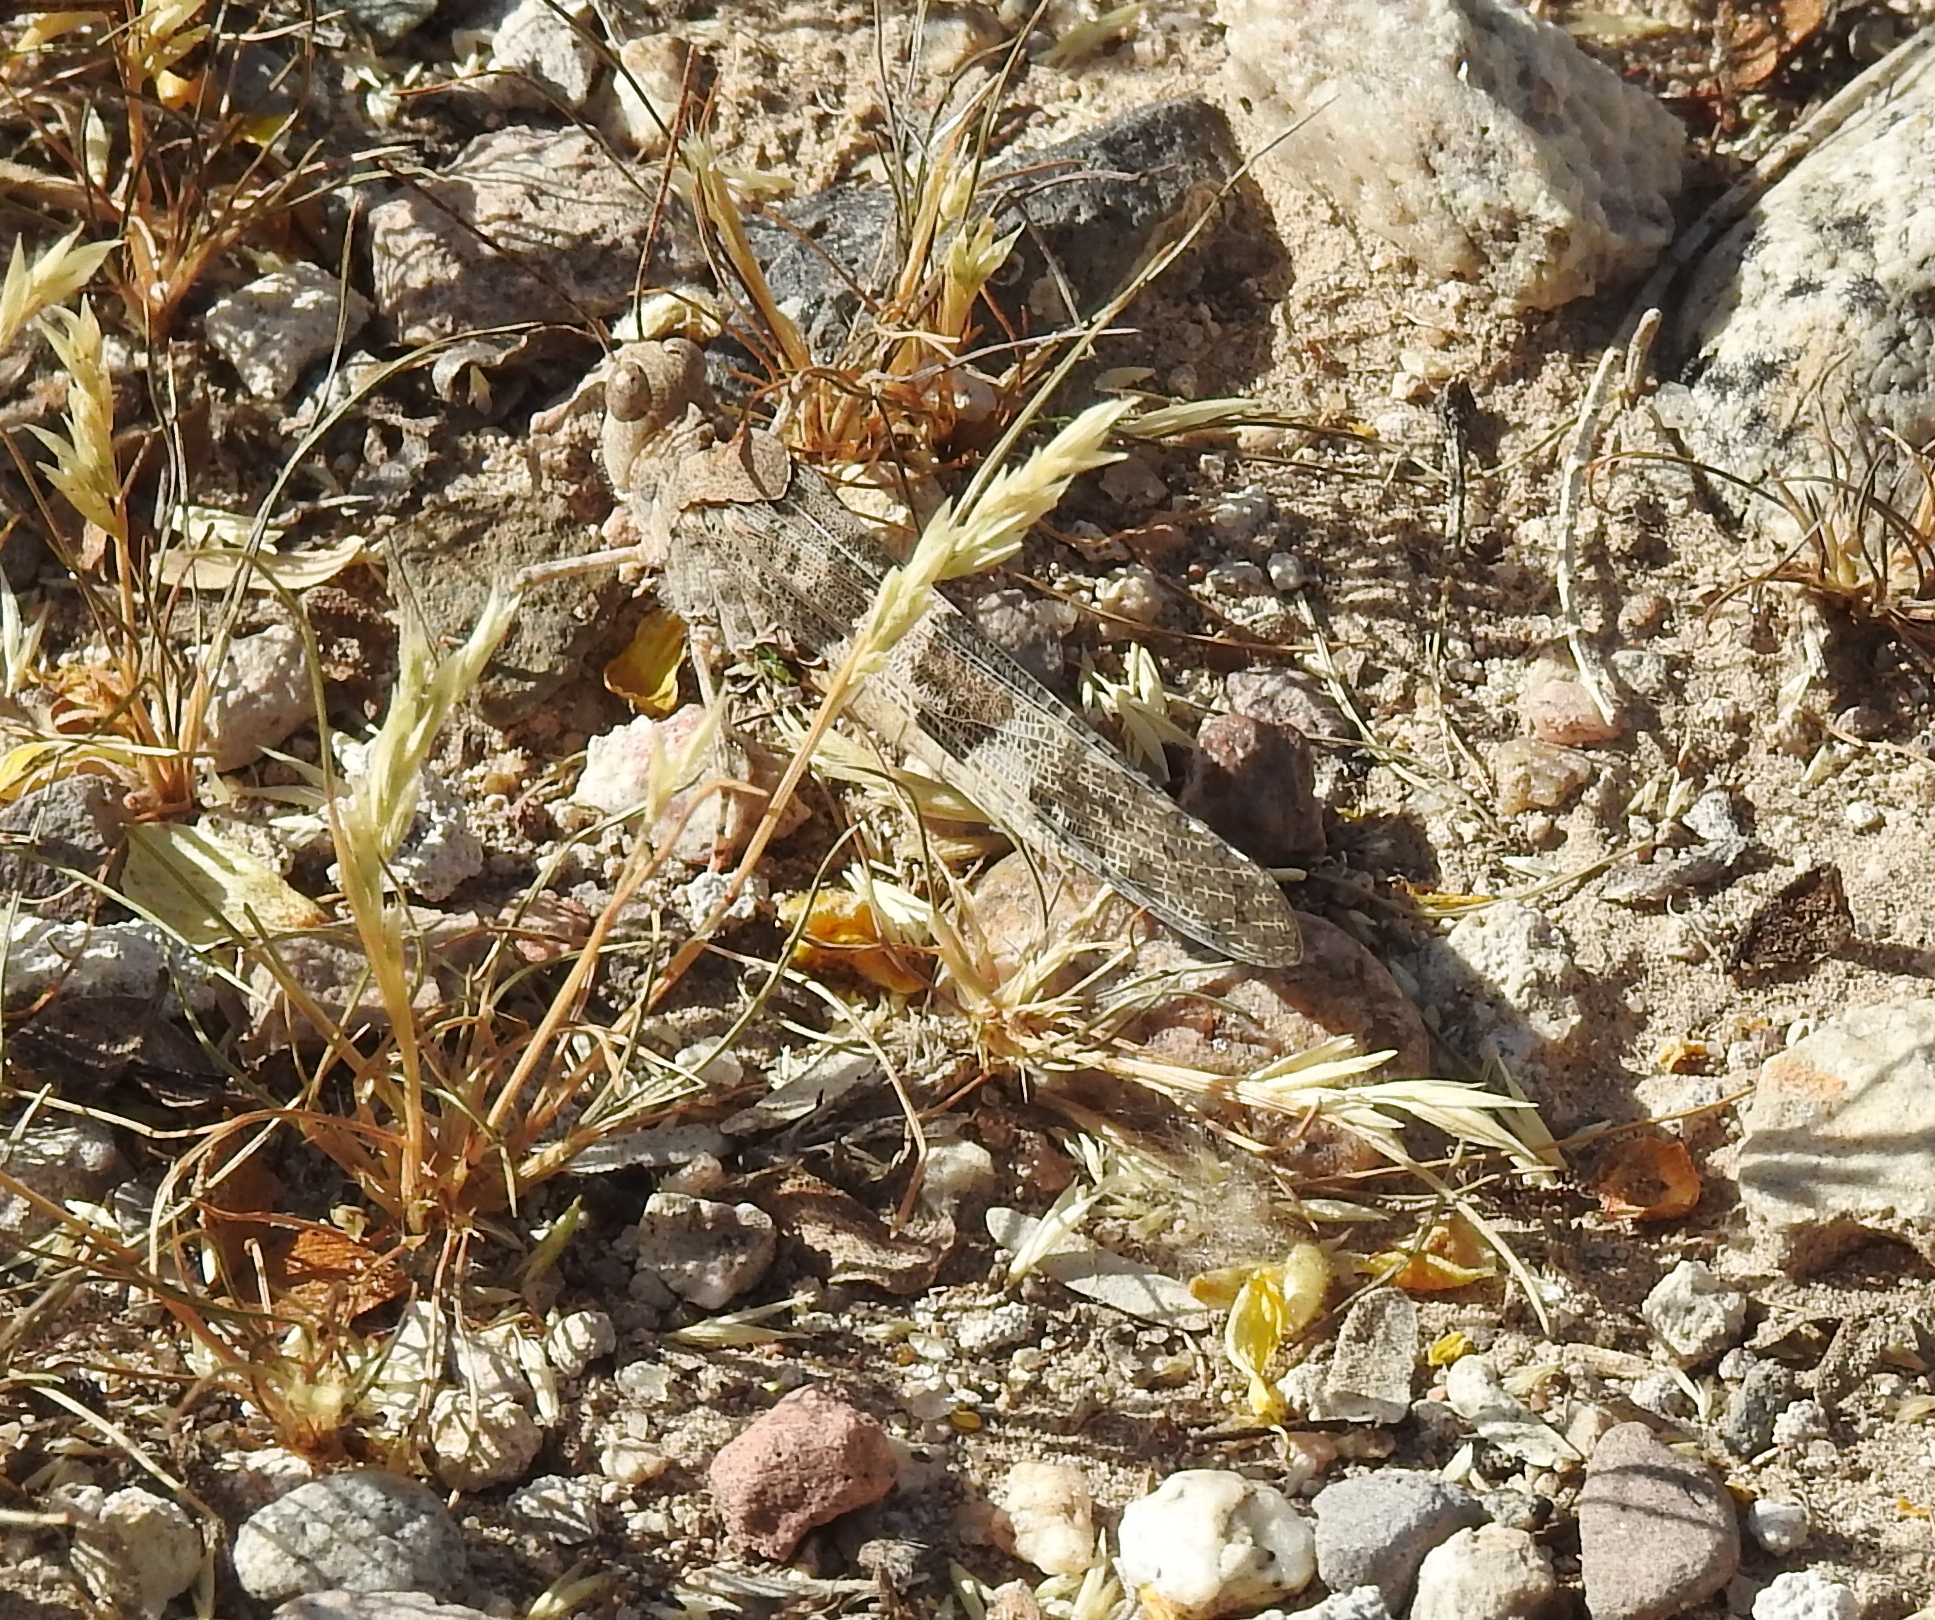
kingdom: Animalia
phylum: Arthropoda
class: Insecta
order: Orthoptera
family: Acrididae
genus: Trimerotropis
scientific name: Trimerotropis pallidipennis
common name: Pallid-winged grasshopper
